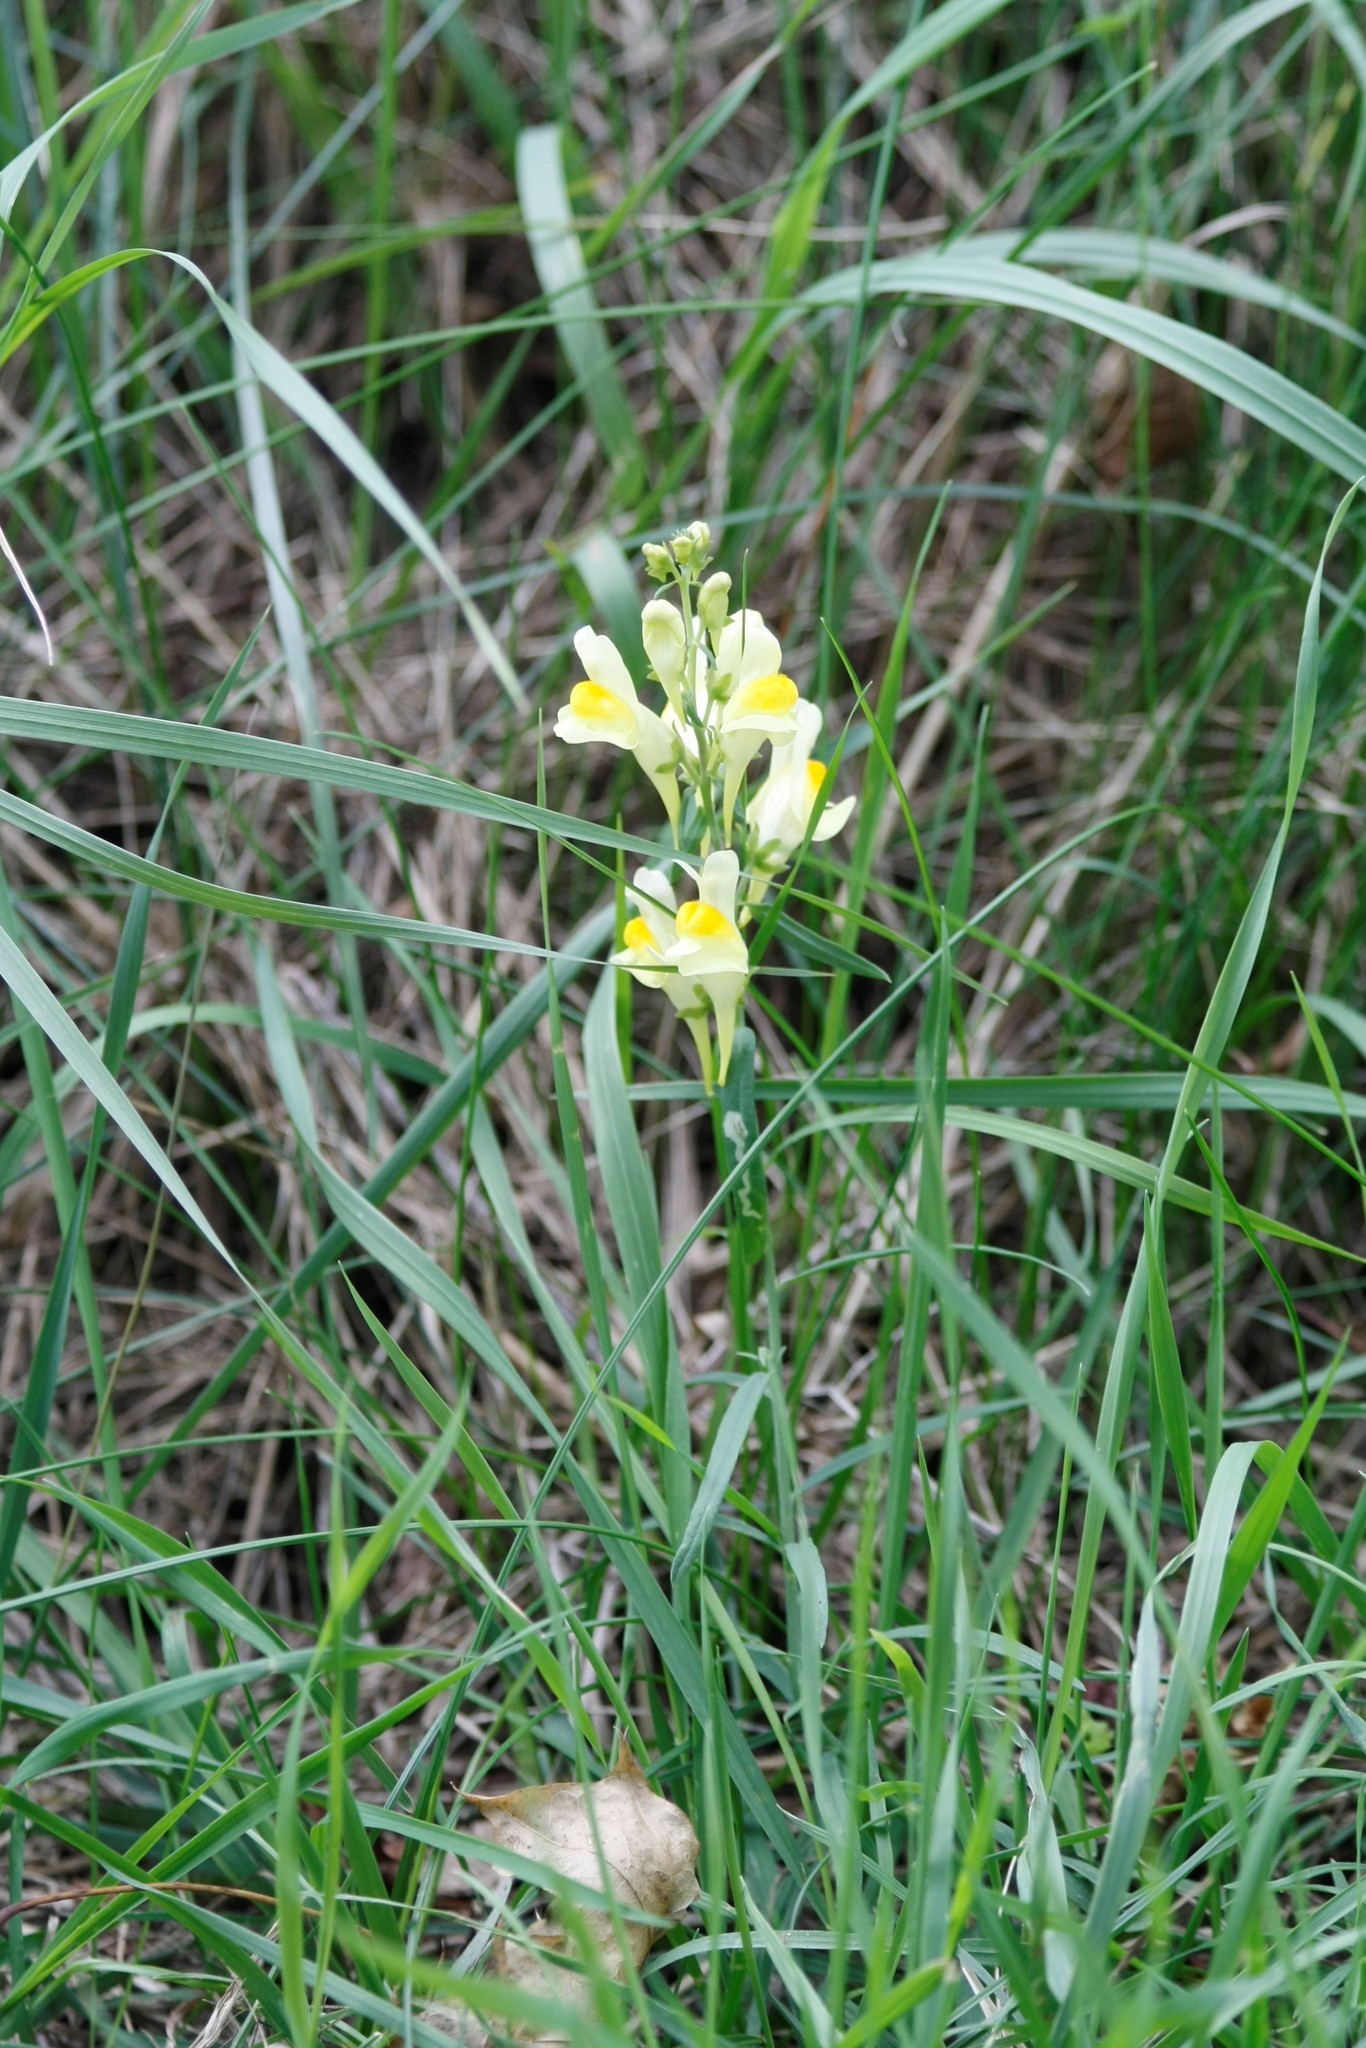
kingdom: Plantae
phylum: Tracheophyta
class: Magnoliopsida
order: Lamiales
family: Plantaginaceae
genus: Linaria
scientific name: Linaria vulgaris
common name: Butter and eggs
